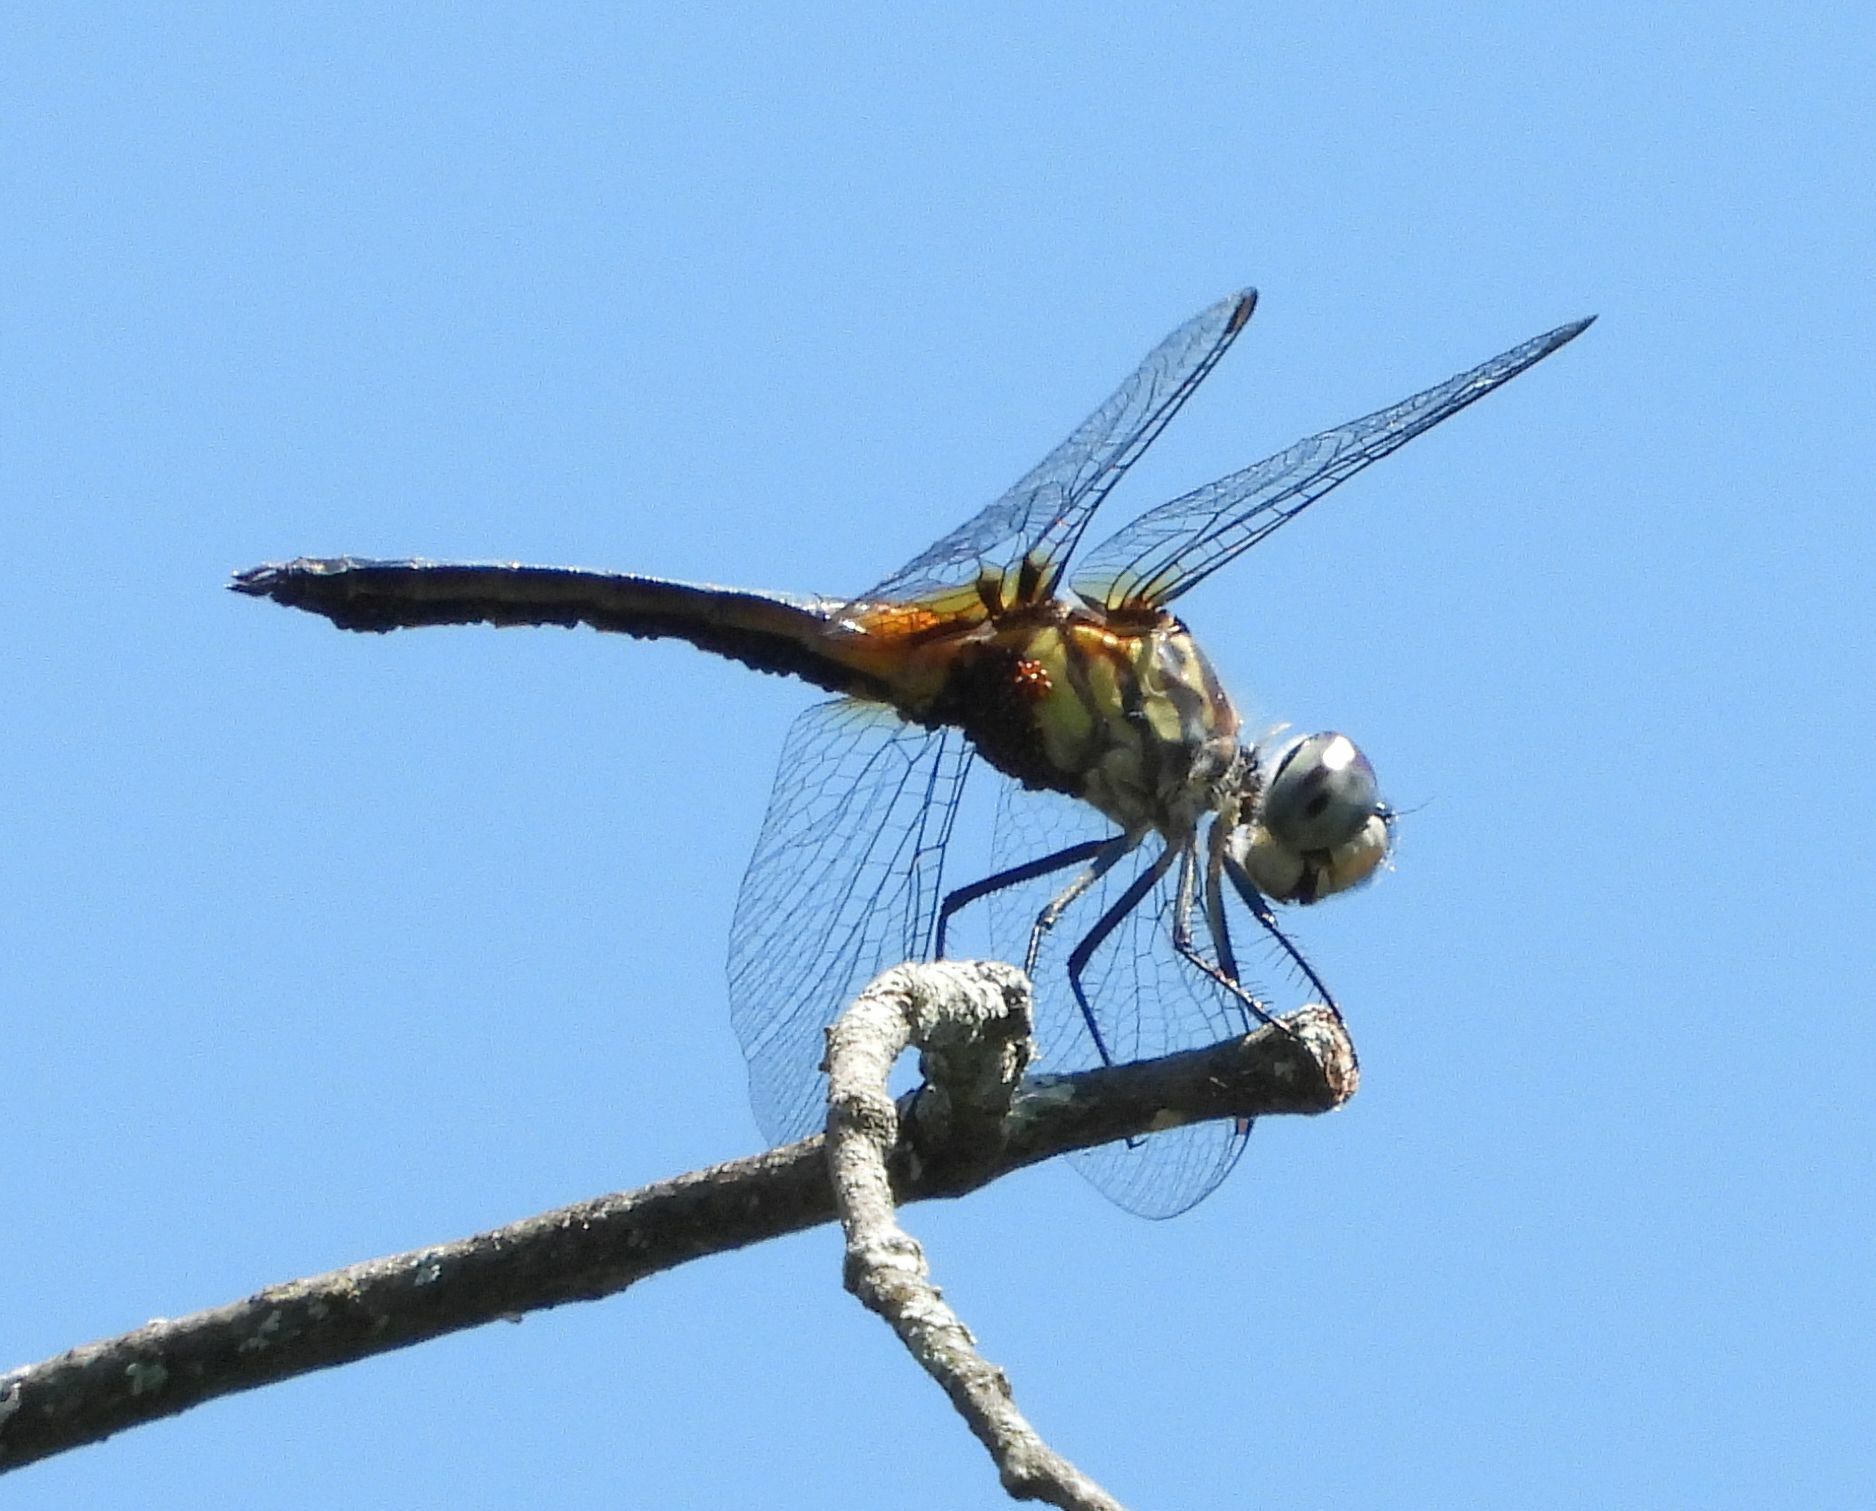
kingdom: Animalia
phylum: Arthropoda
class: Insecta
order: Odonata
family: Libellulidae
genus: Pachydiplax
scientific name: Pachydiplax longipennis
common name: Blue dasher
